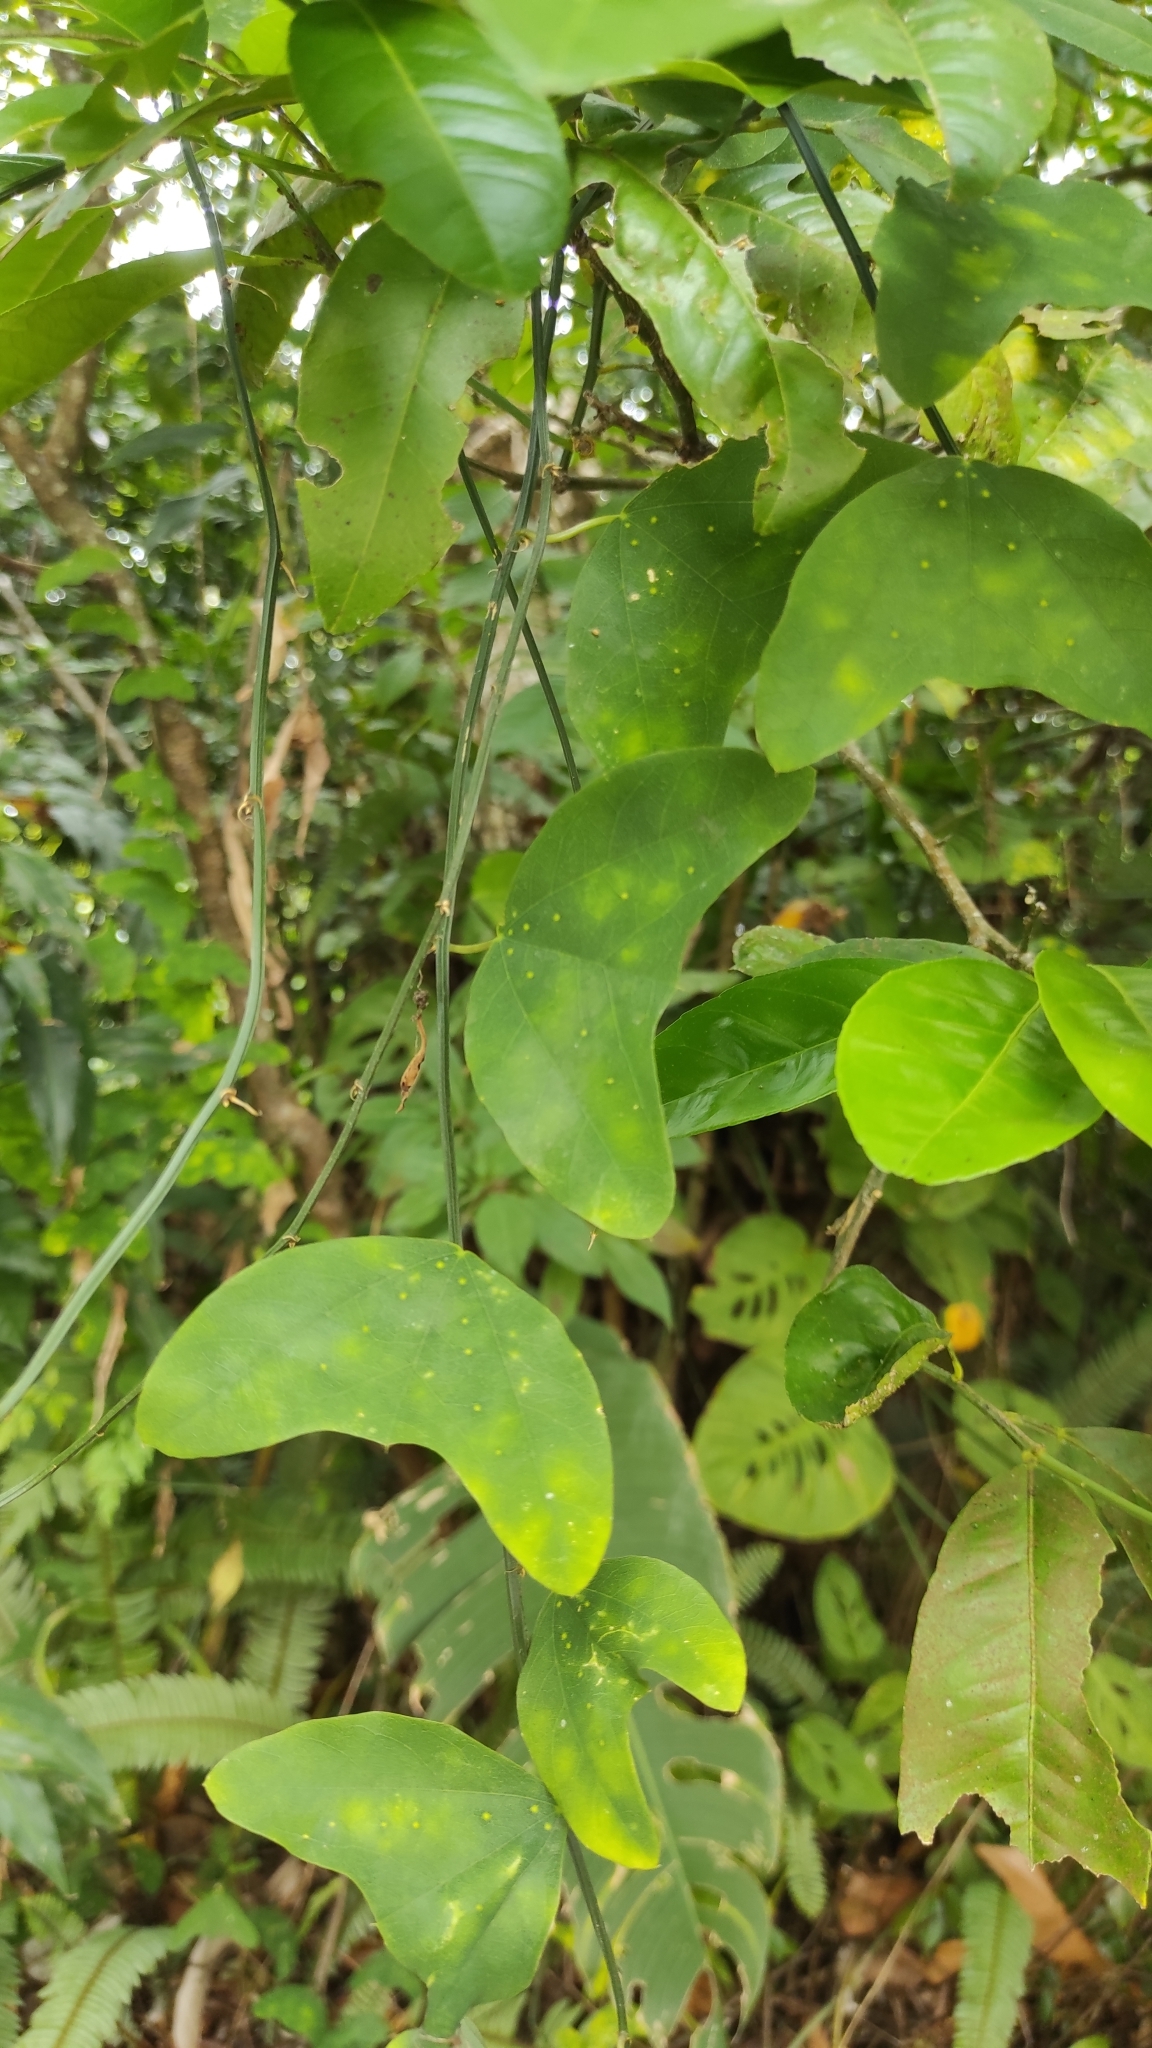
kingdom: Plantae
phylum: Tracheophyta
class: Magnoliopsida
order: Malpighiales
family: Passifloraceae
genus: Passiflora
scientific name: Passiflora biflora
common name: Twoflower passionflower
